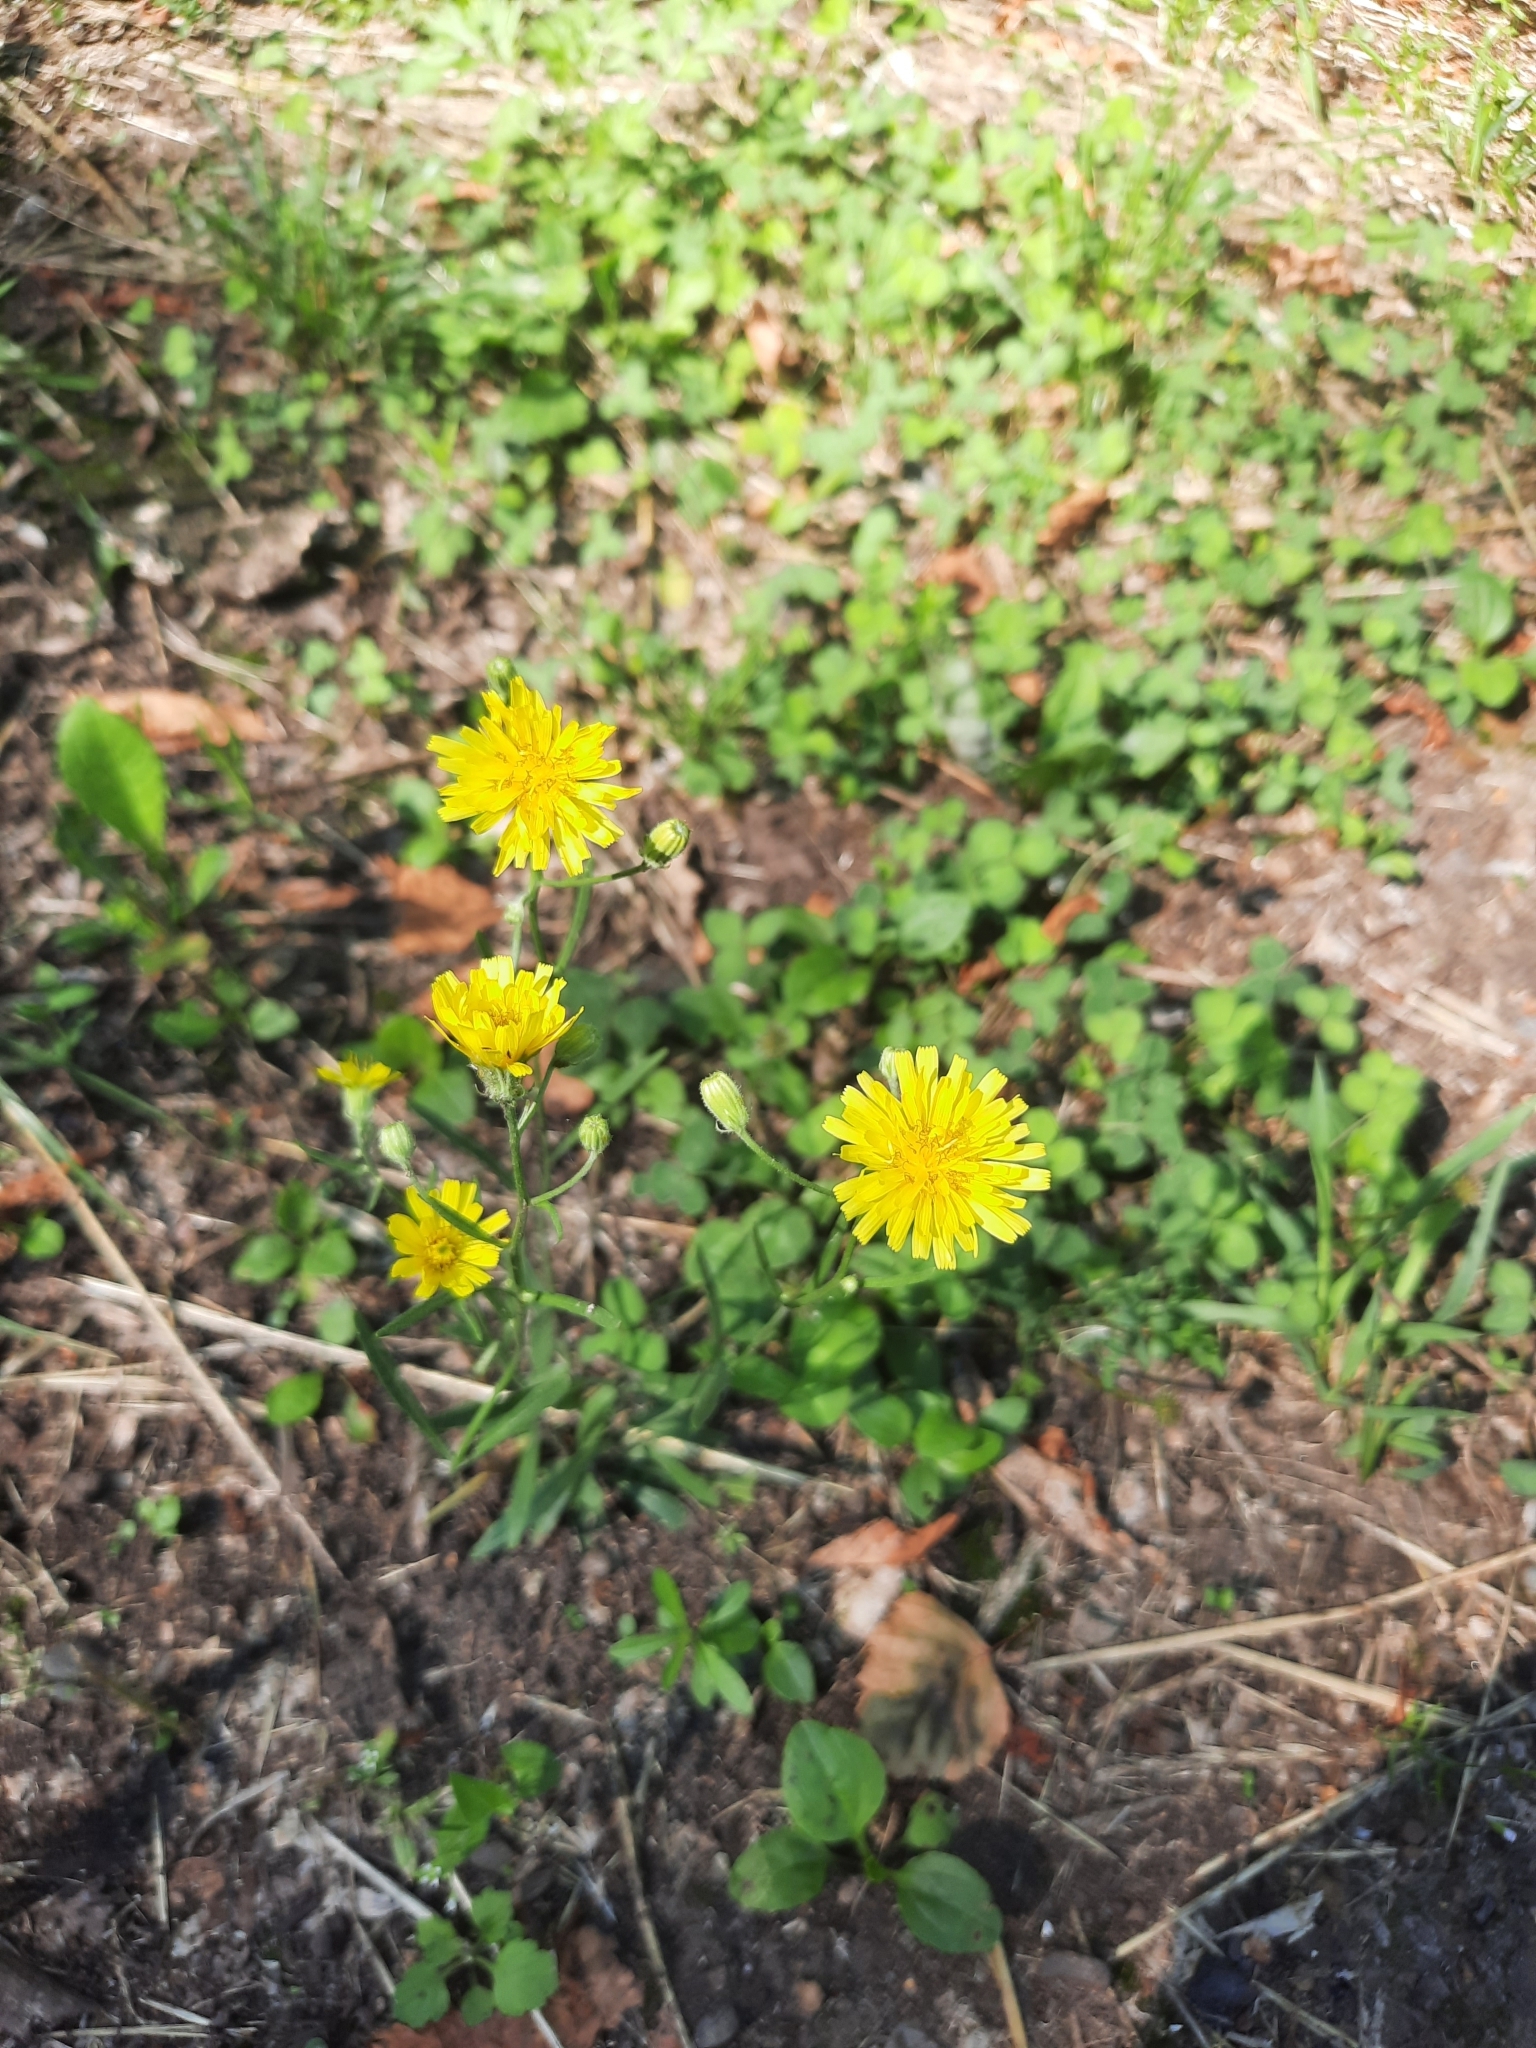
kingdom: Plantae
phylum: Tracheophyta
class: Magnoliopsida
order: Asterales
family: Asteraceae
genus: Crepis
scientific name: Crepis tectorum
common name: Narrow-leaved hawk's-beard
